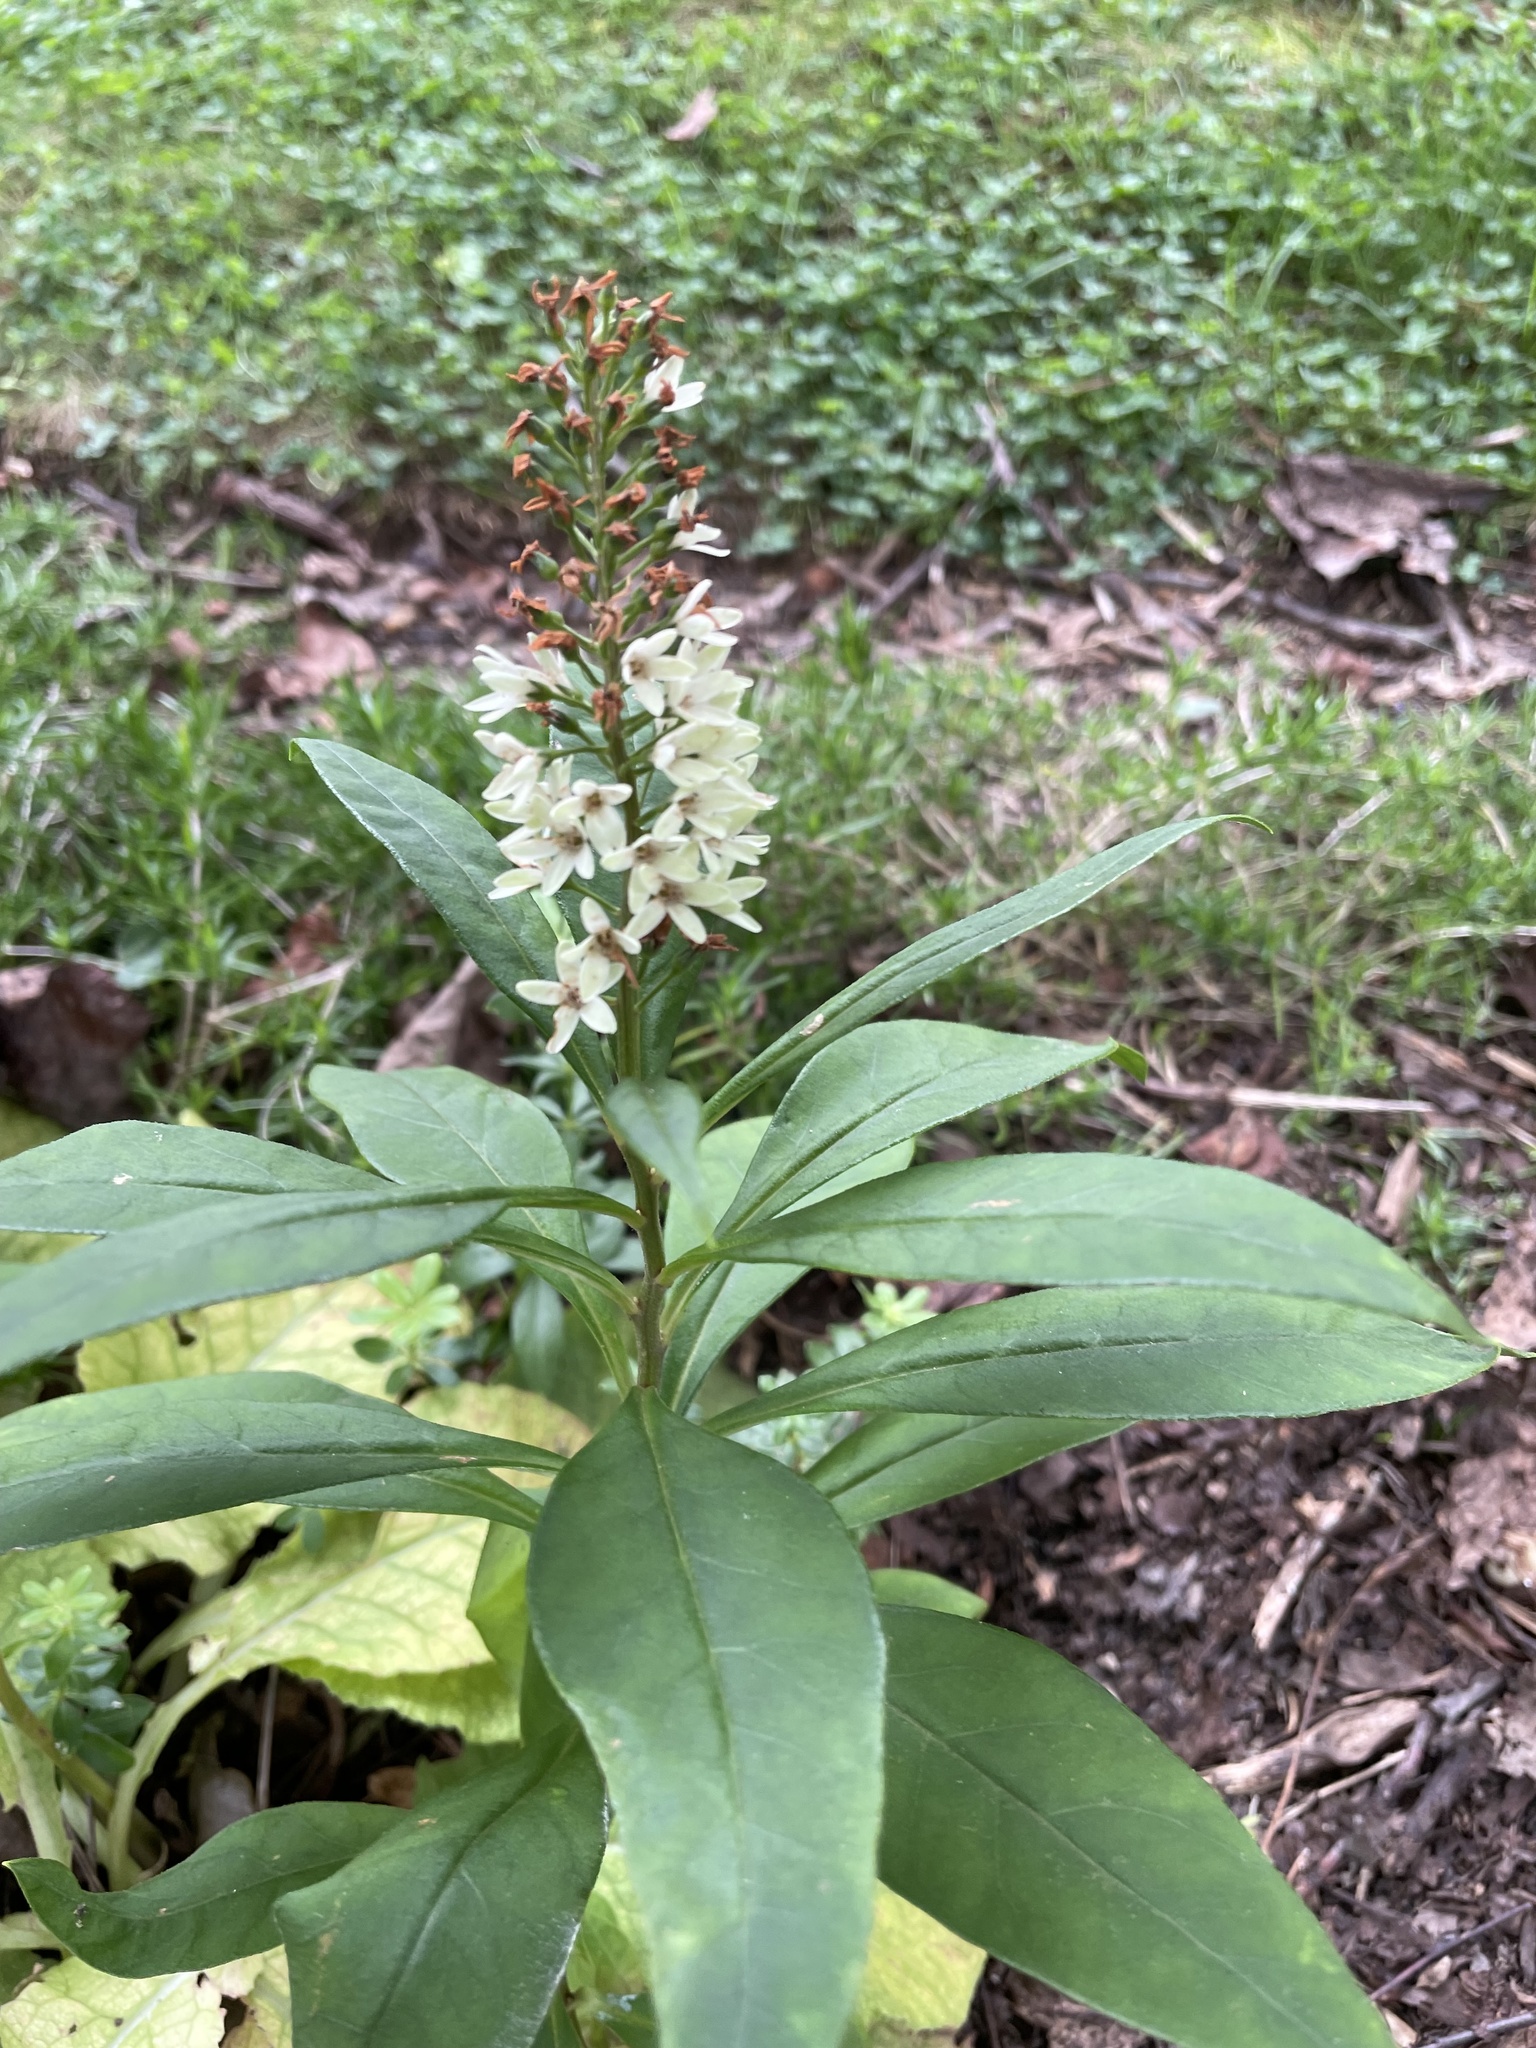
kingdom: Plantae
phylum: Tracheophyta
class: Magnoliopsida
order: Ericales
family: Primulaceae
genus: Lysimachia
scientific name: Lysimachia clethroides
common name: Gooseneck loosestrife
